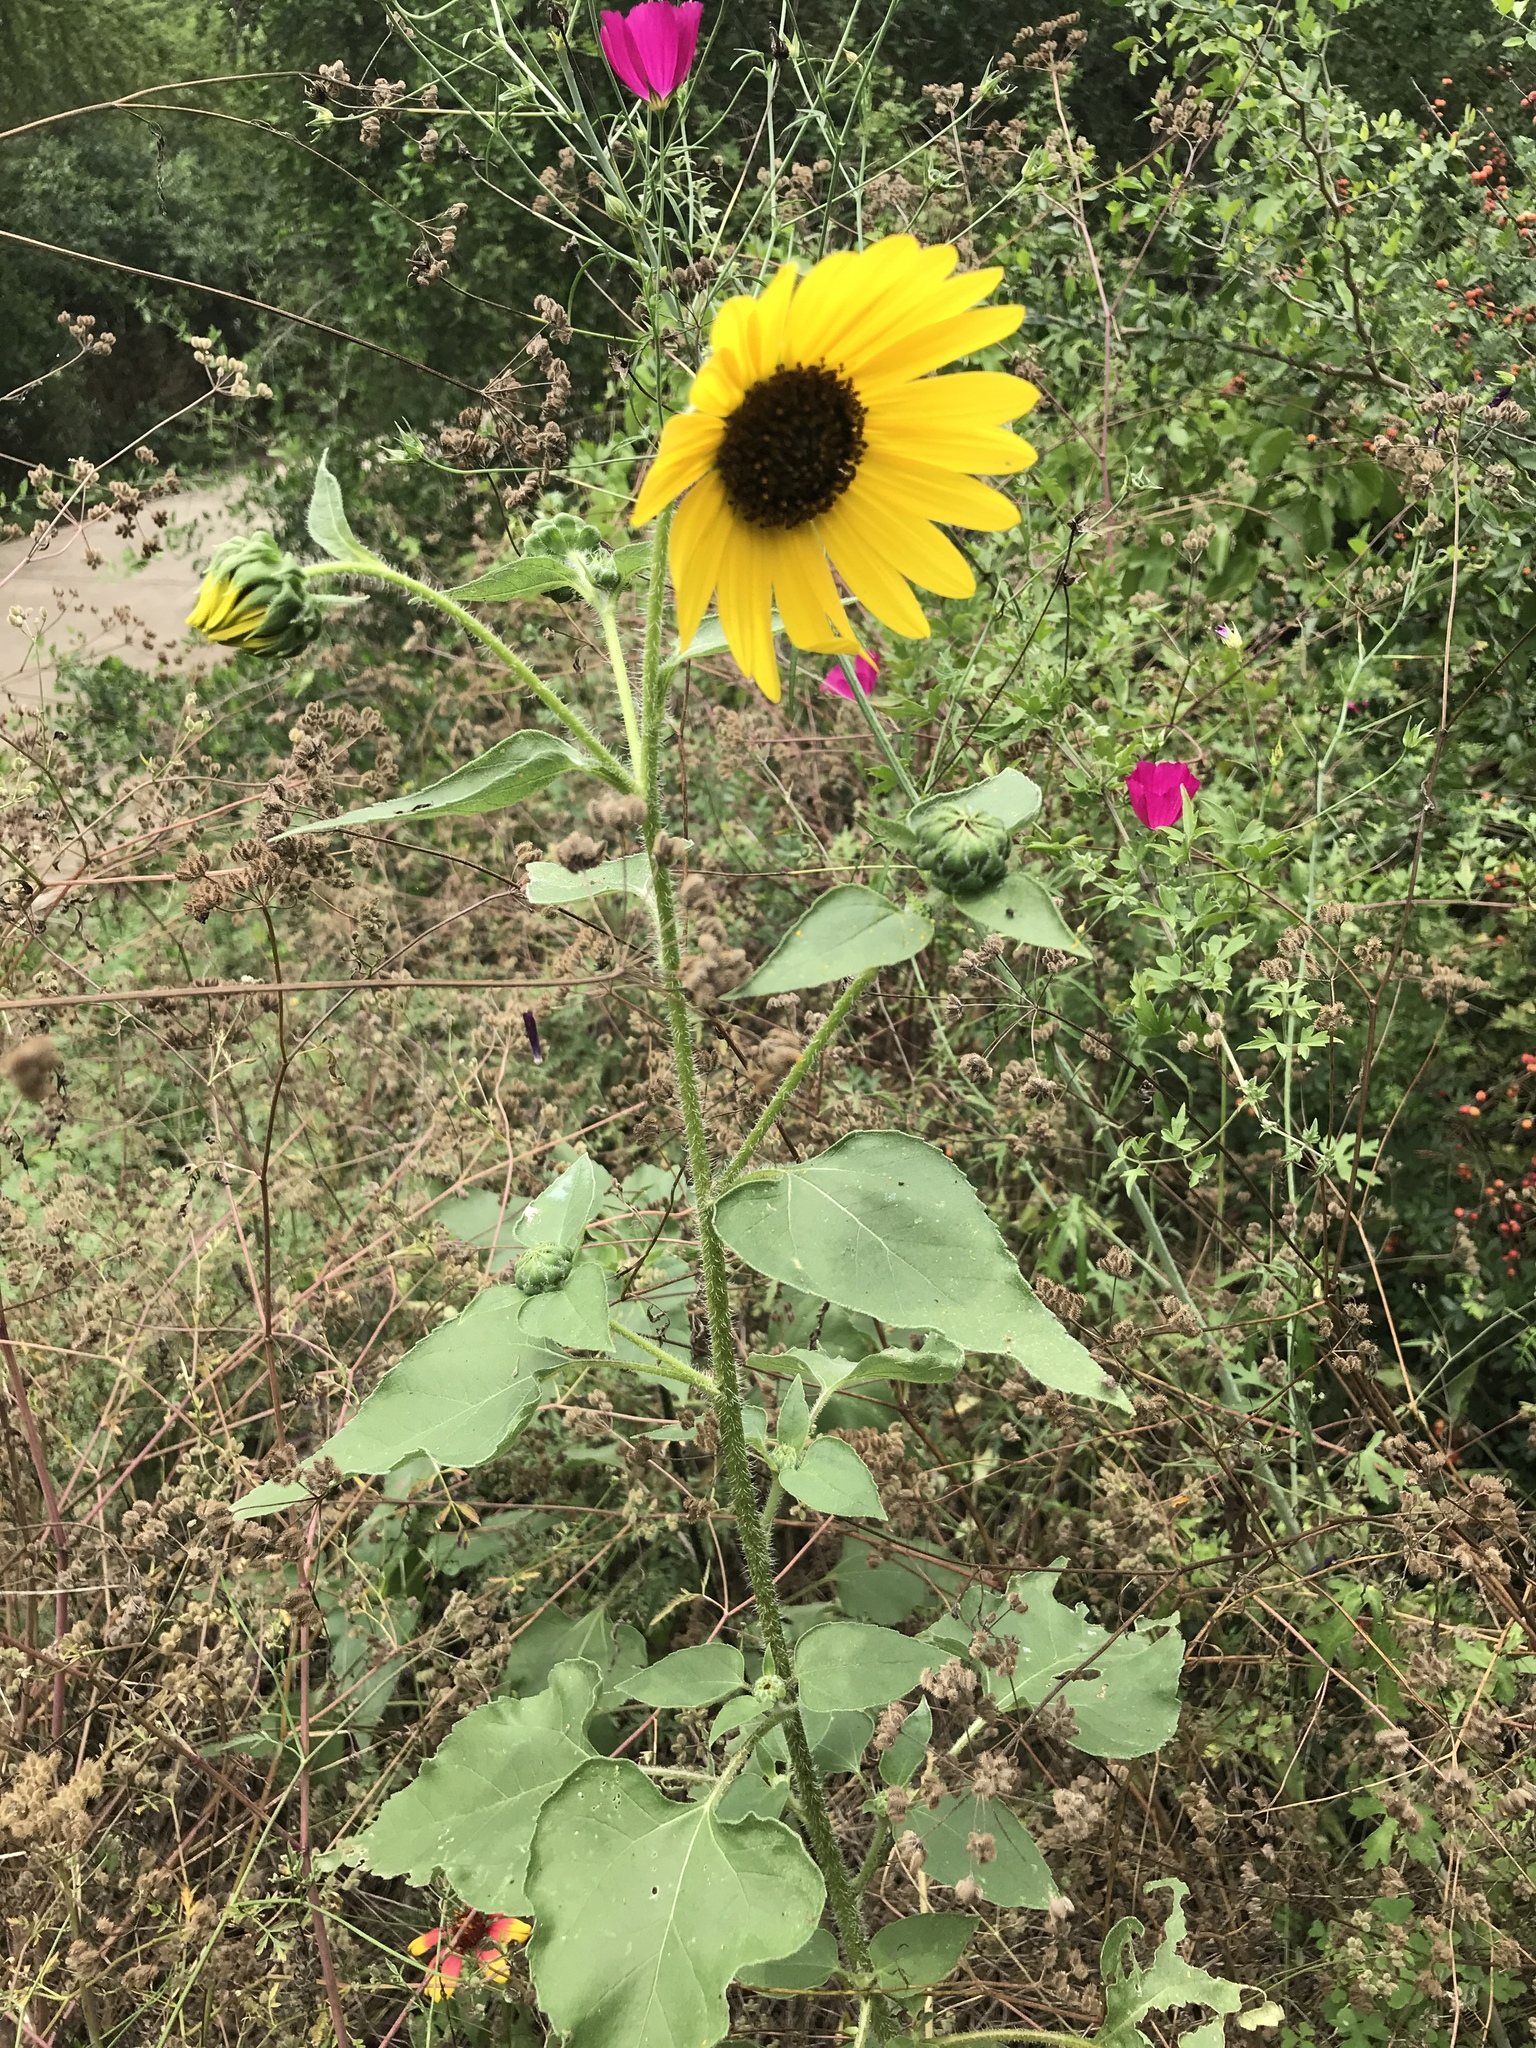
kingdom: Plantae
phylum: Tracheophyta
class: Magnoliopsida
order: Asterales
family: Asteraceae
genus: Helianthus
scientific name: Helianthus annuus
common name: Sunflower
